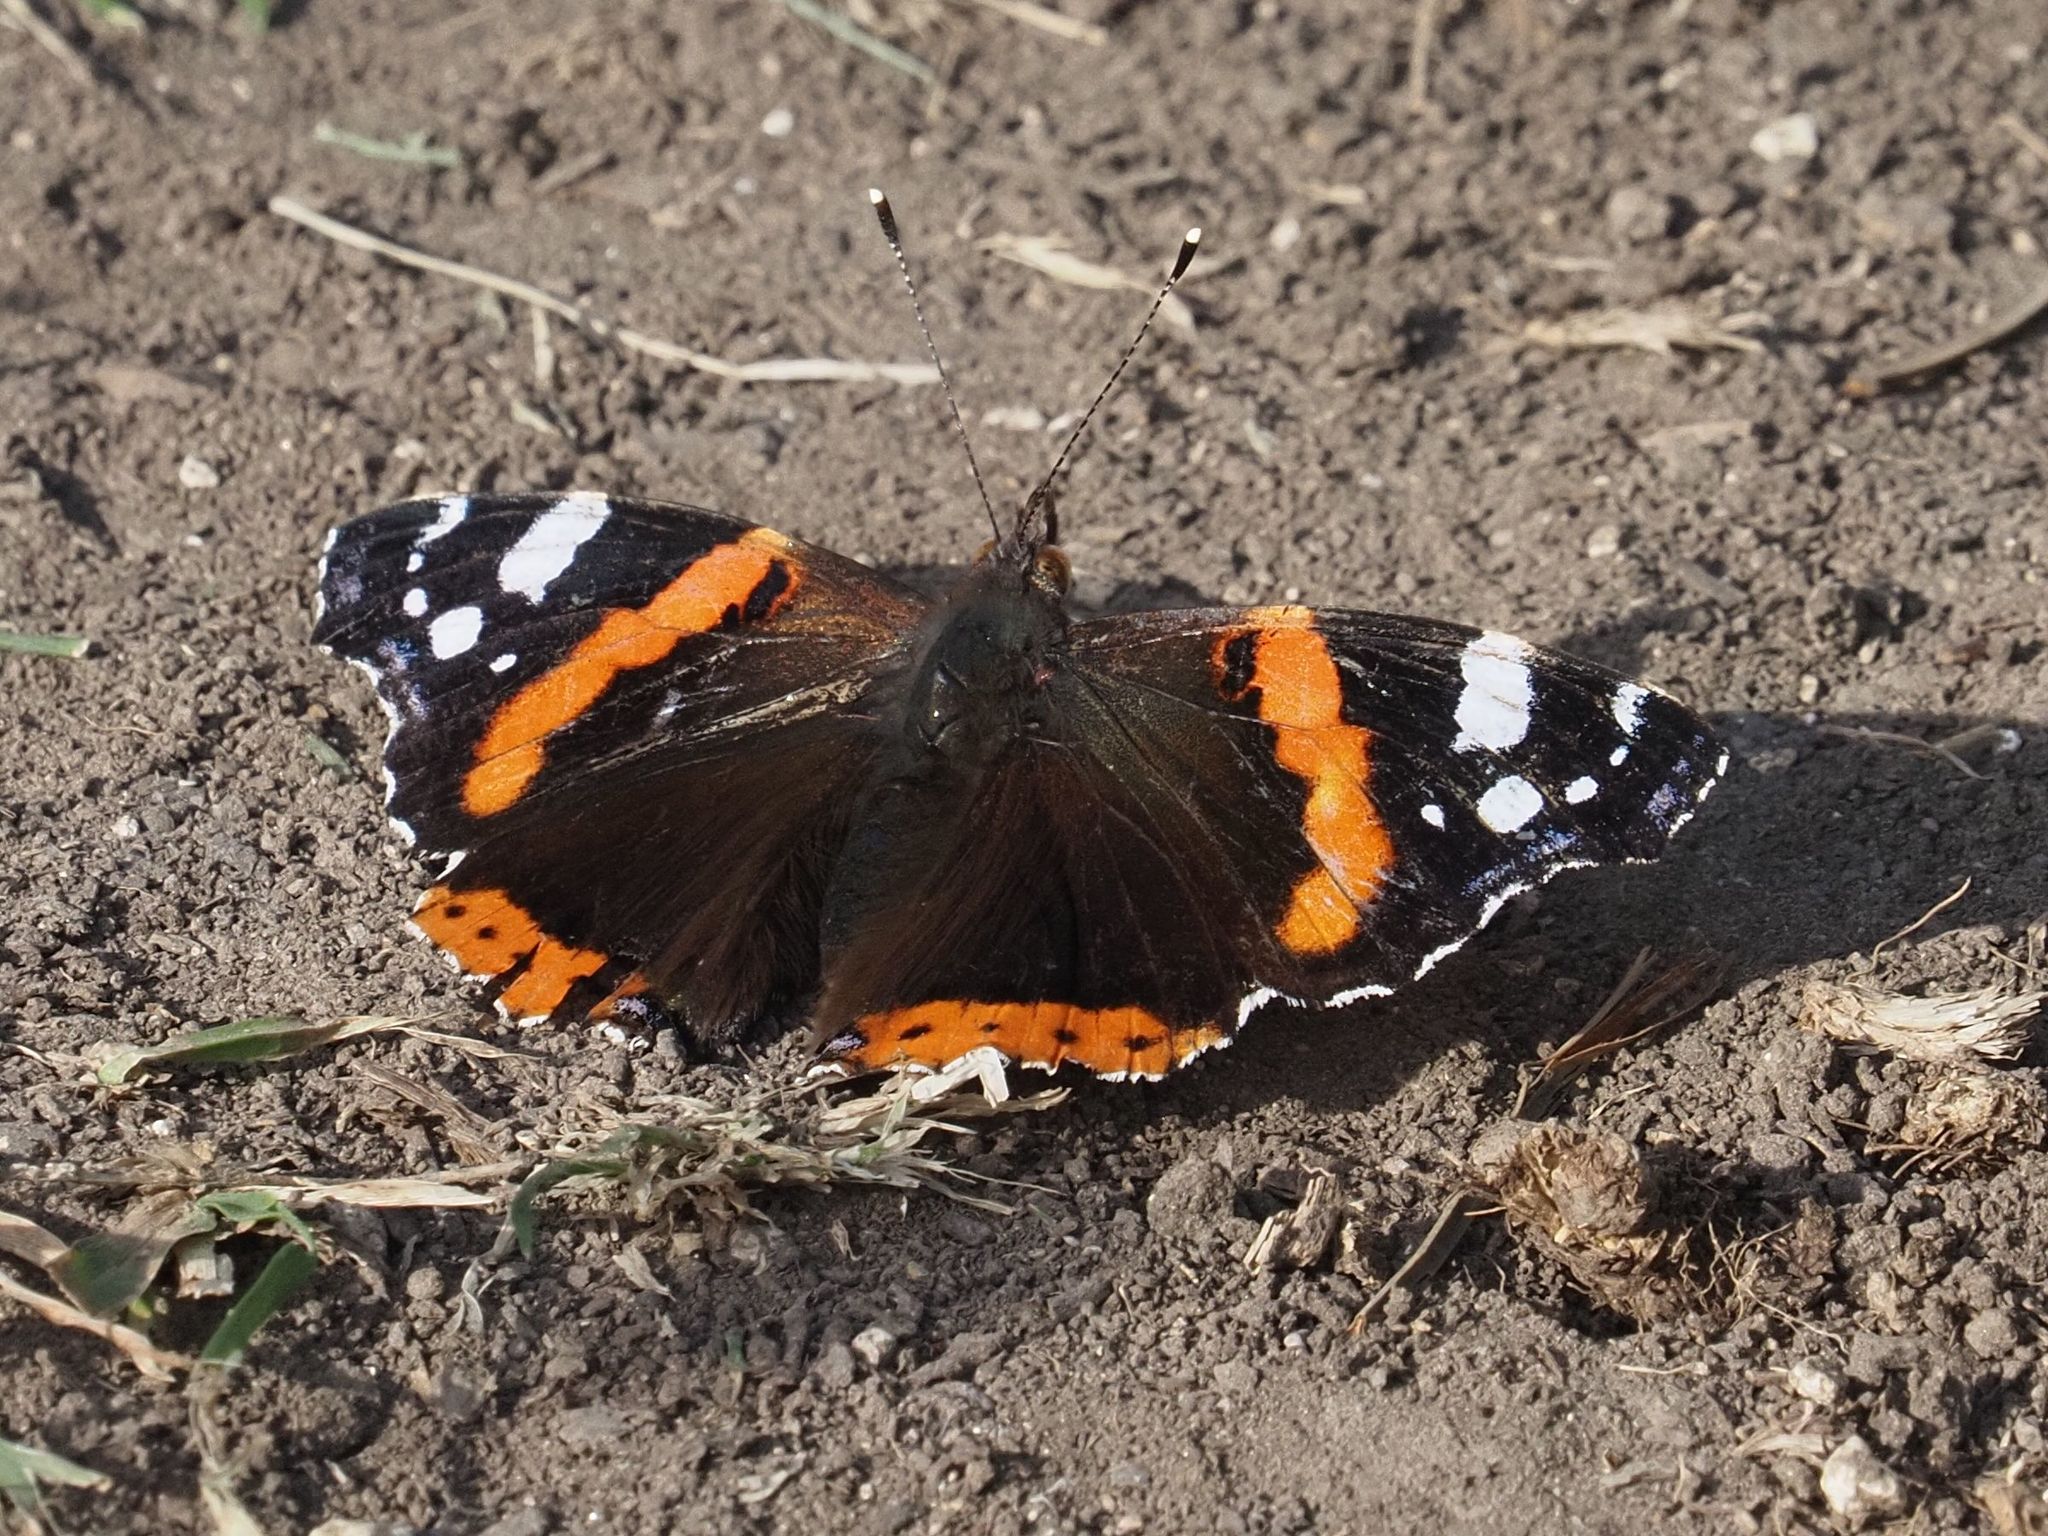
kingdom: Animalia
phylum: Arthropoda
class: Insecta
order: Lepidoptera
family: Nymphalidae
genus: Vanessa
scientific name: Vanessa atalanta
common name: Red admiral
